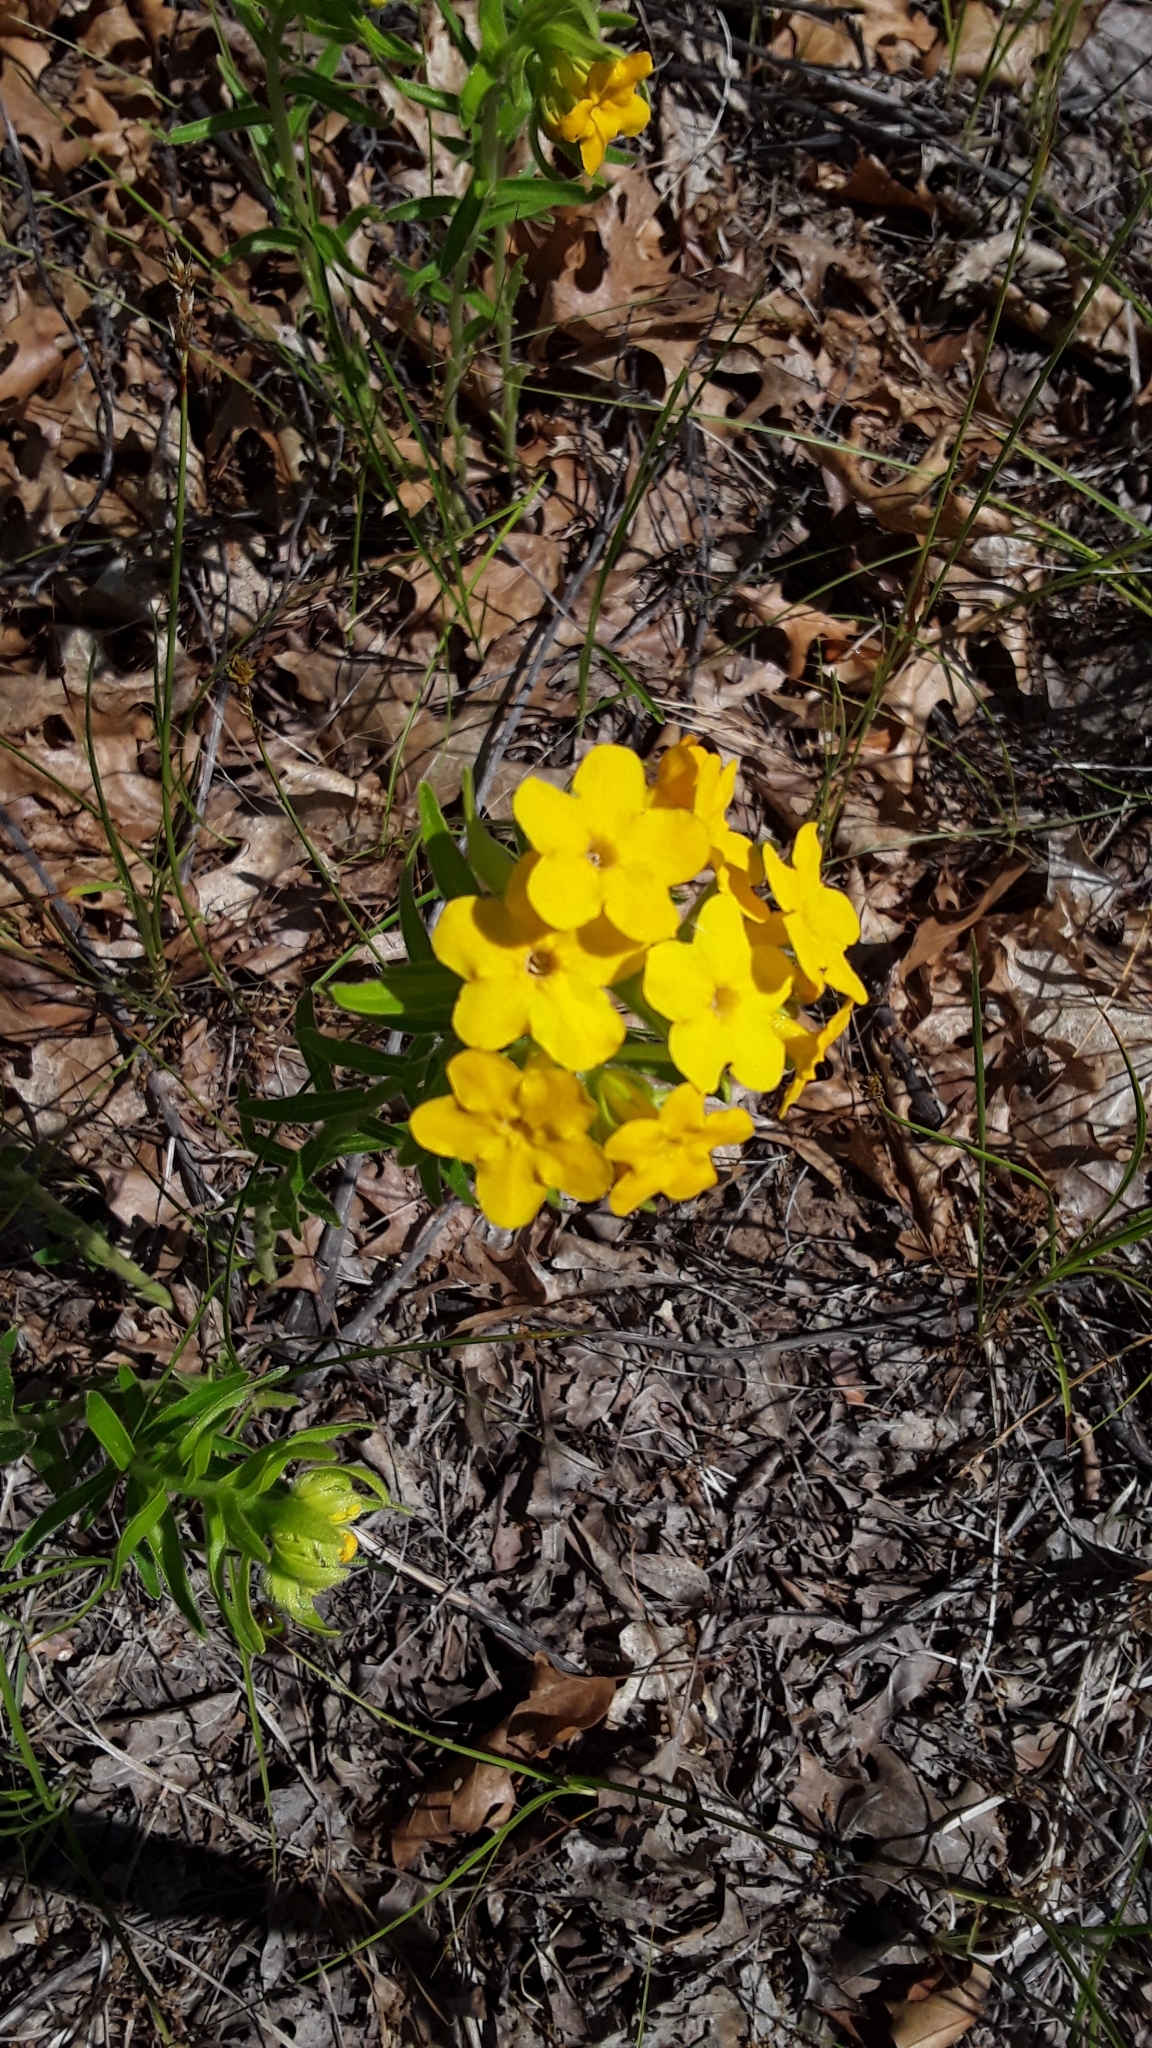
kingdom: Plantae
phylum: Tracheophyta
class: Magnoliopsida
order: Boraginales
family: Boraginaceae
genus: Lithospermum
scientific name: Lithospermum caroliniense
